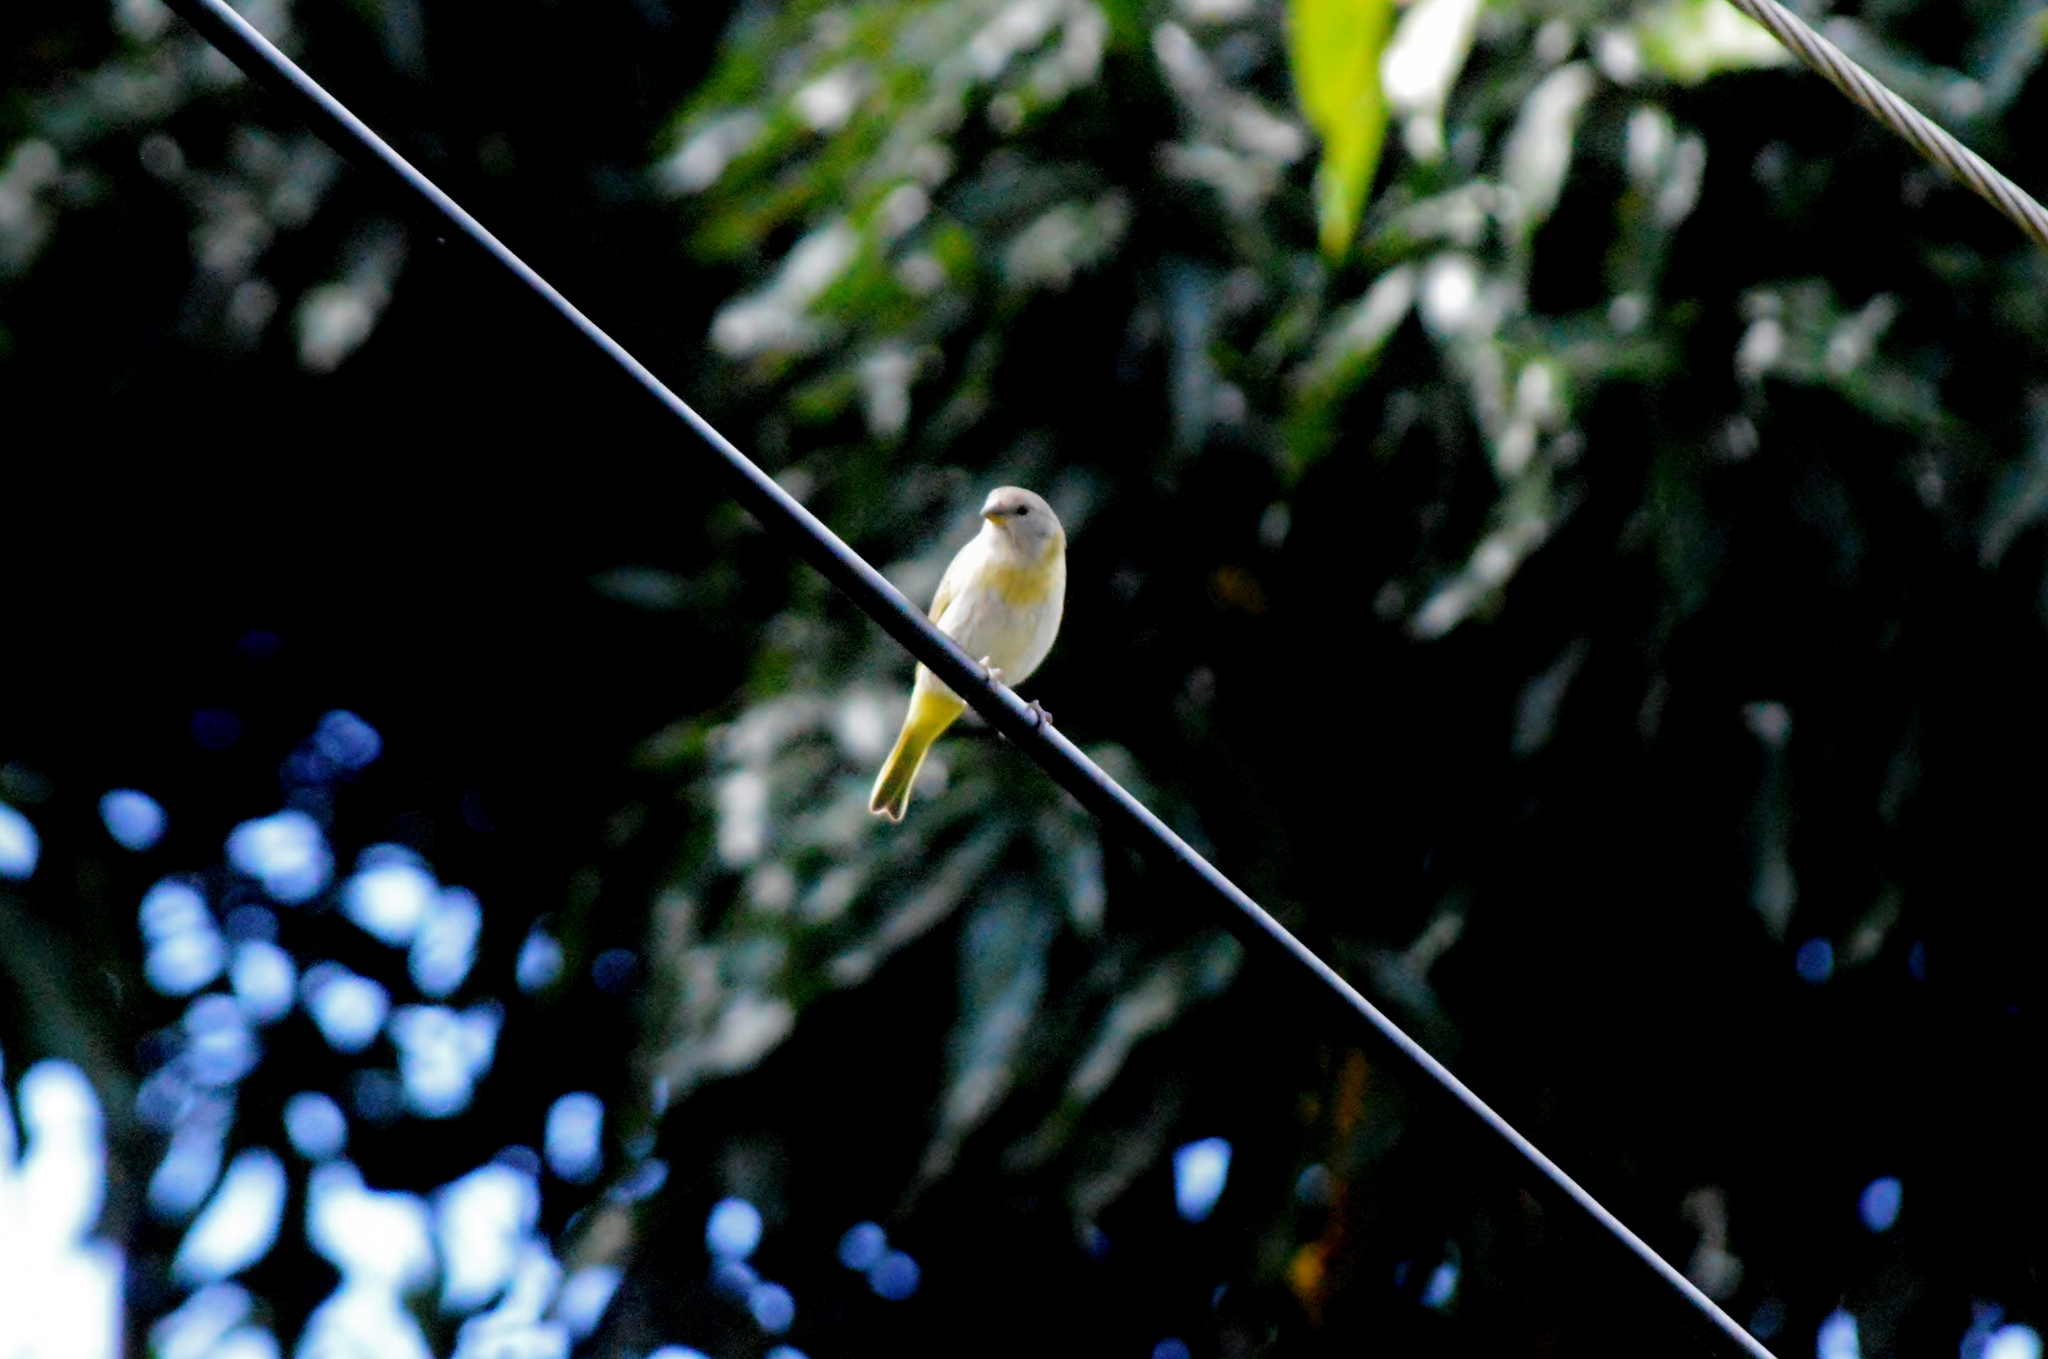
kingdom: Animalia
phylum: Chordata
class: Aves
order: Passeriformes
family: Thraupidae
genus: Sicalis
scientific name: Sicalis flaveola
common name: Saffron finch
